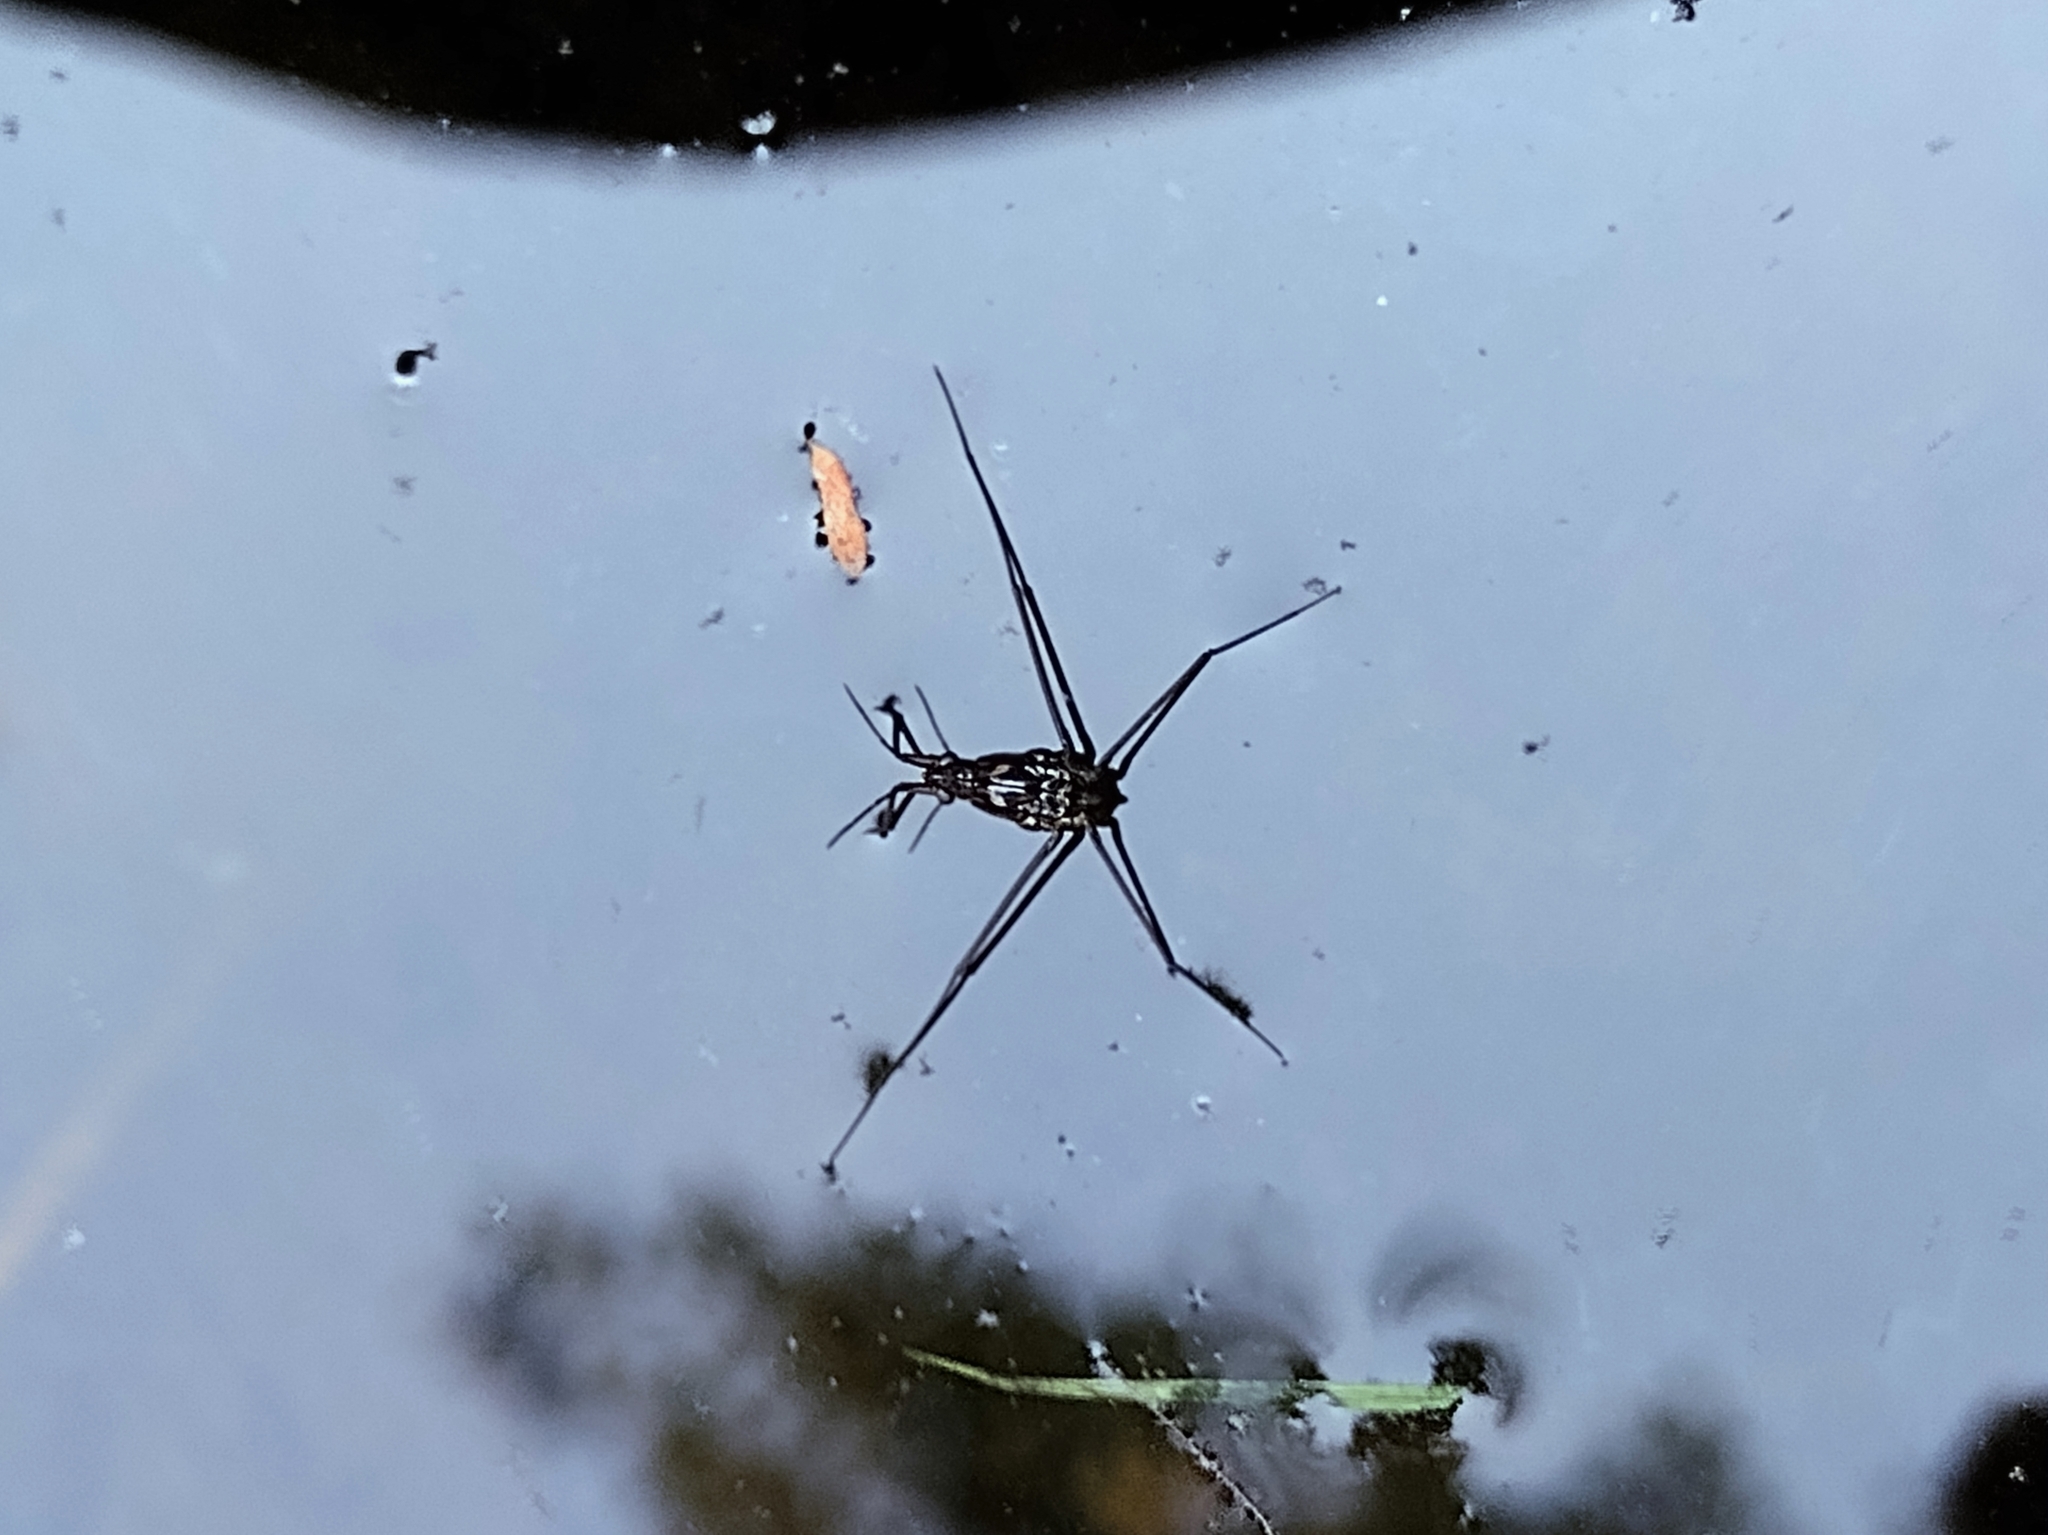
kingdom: Animalia
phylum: Arthropoda
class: Insecta
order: Hemiptera
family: Gerridae
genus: Aquarius
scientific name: Aquarius remigis
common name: Common water strider
